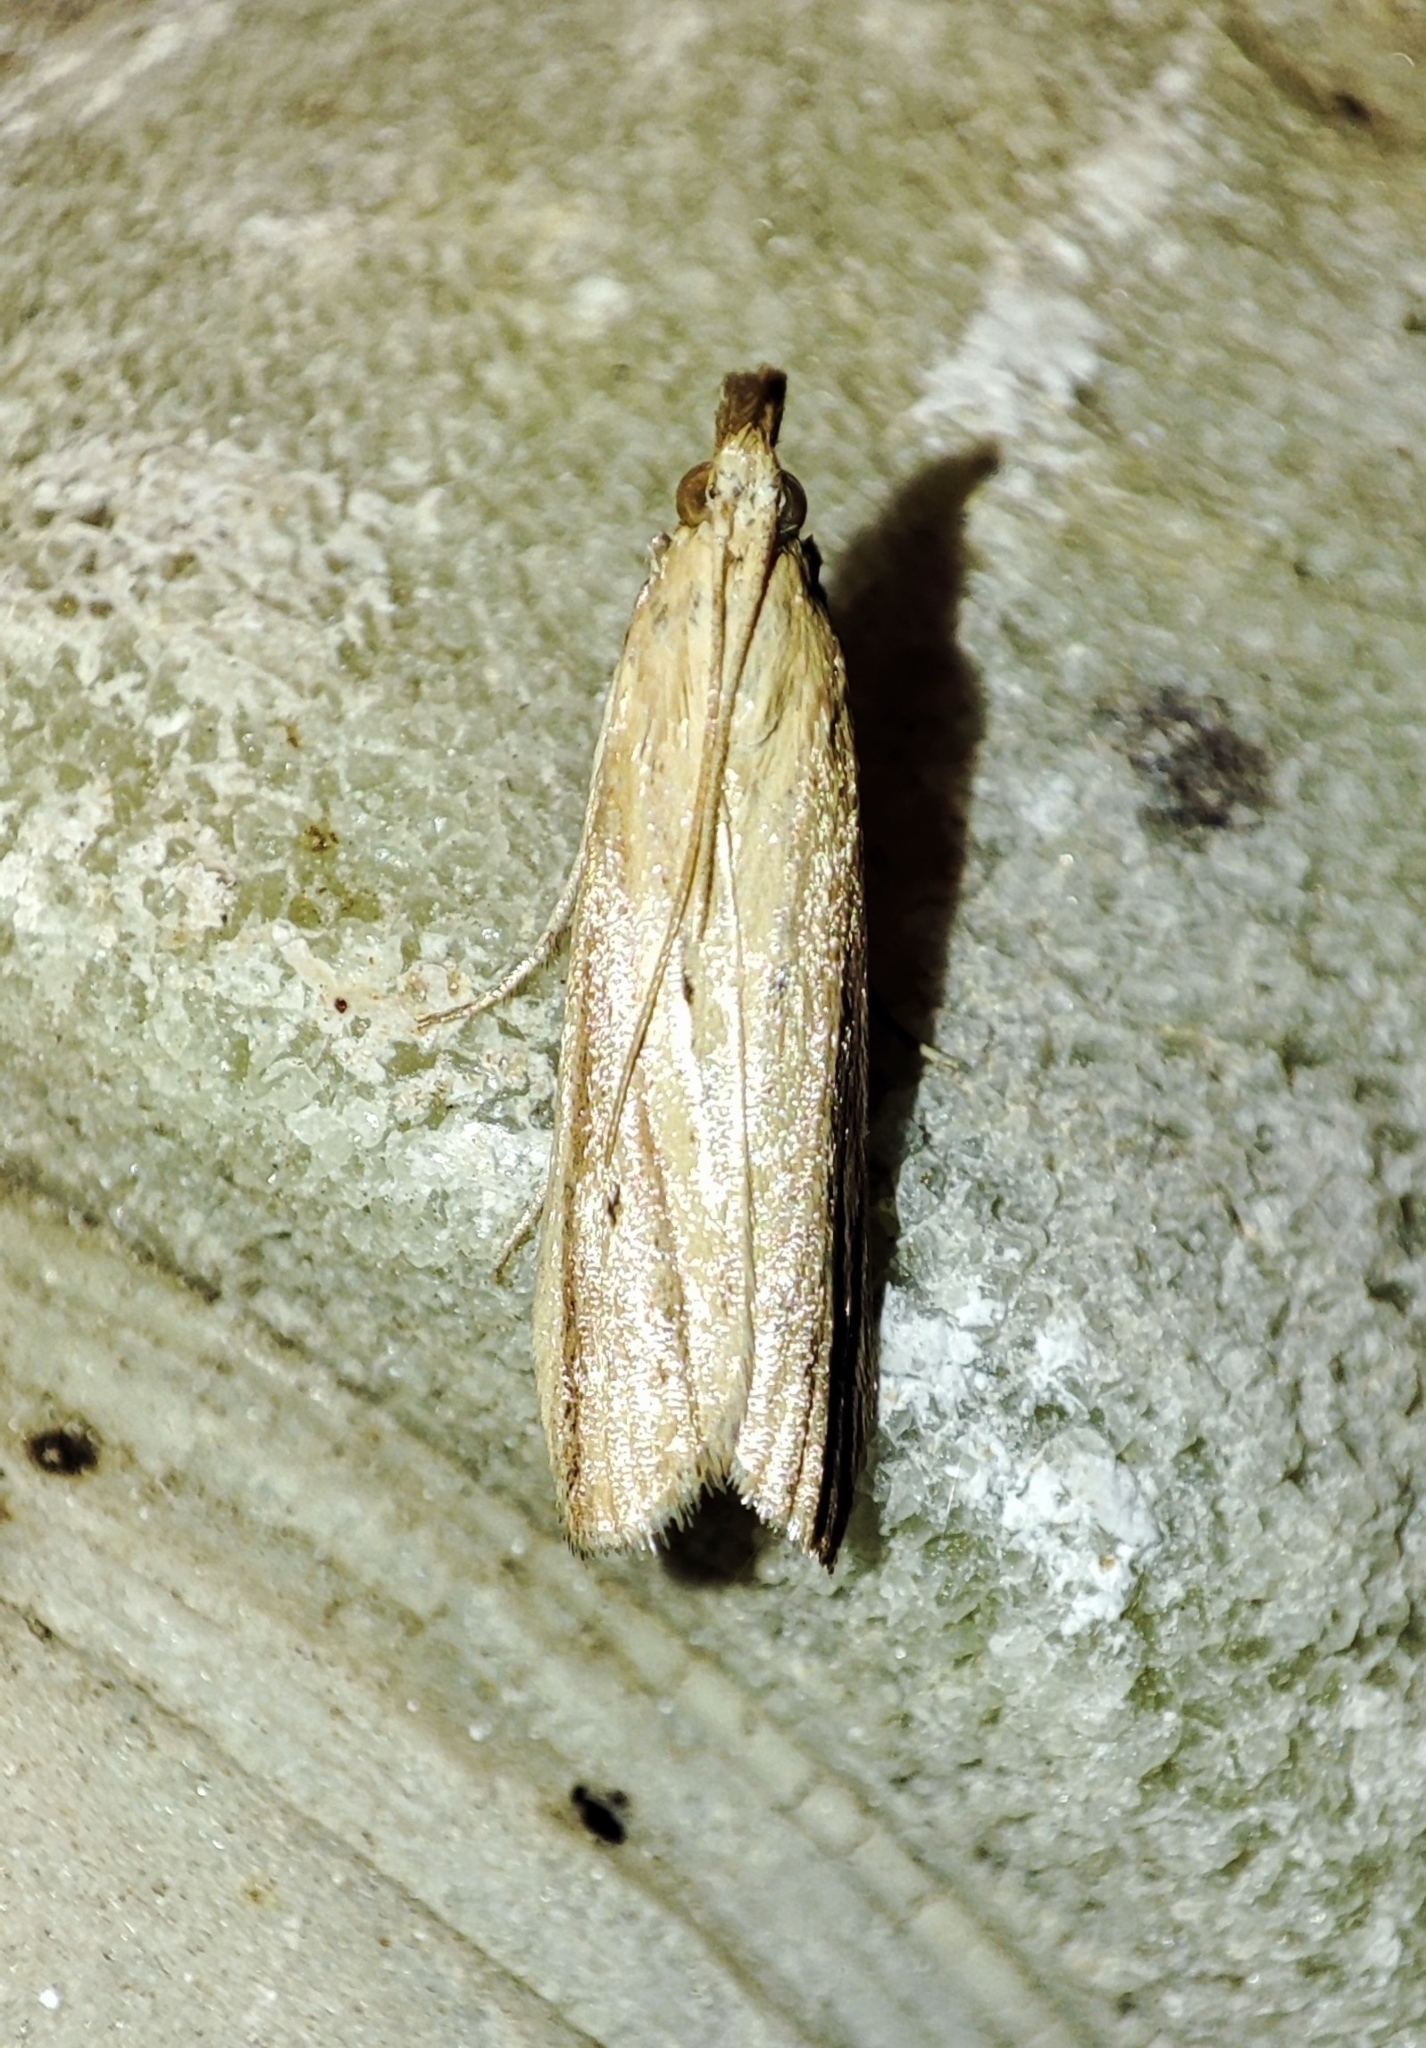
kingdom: Animalia
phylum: Arthropoda
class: Insecta
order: Lepidoptera
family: Pyralidae
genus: Hypsotropa
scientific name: Hypsotropa unipunctella
